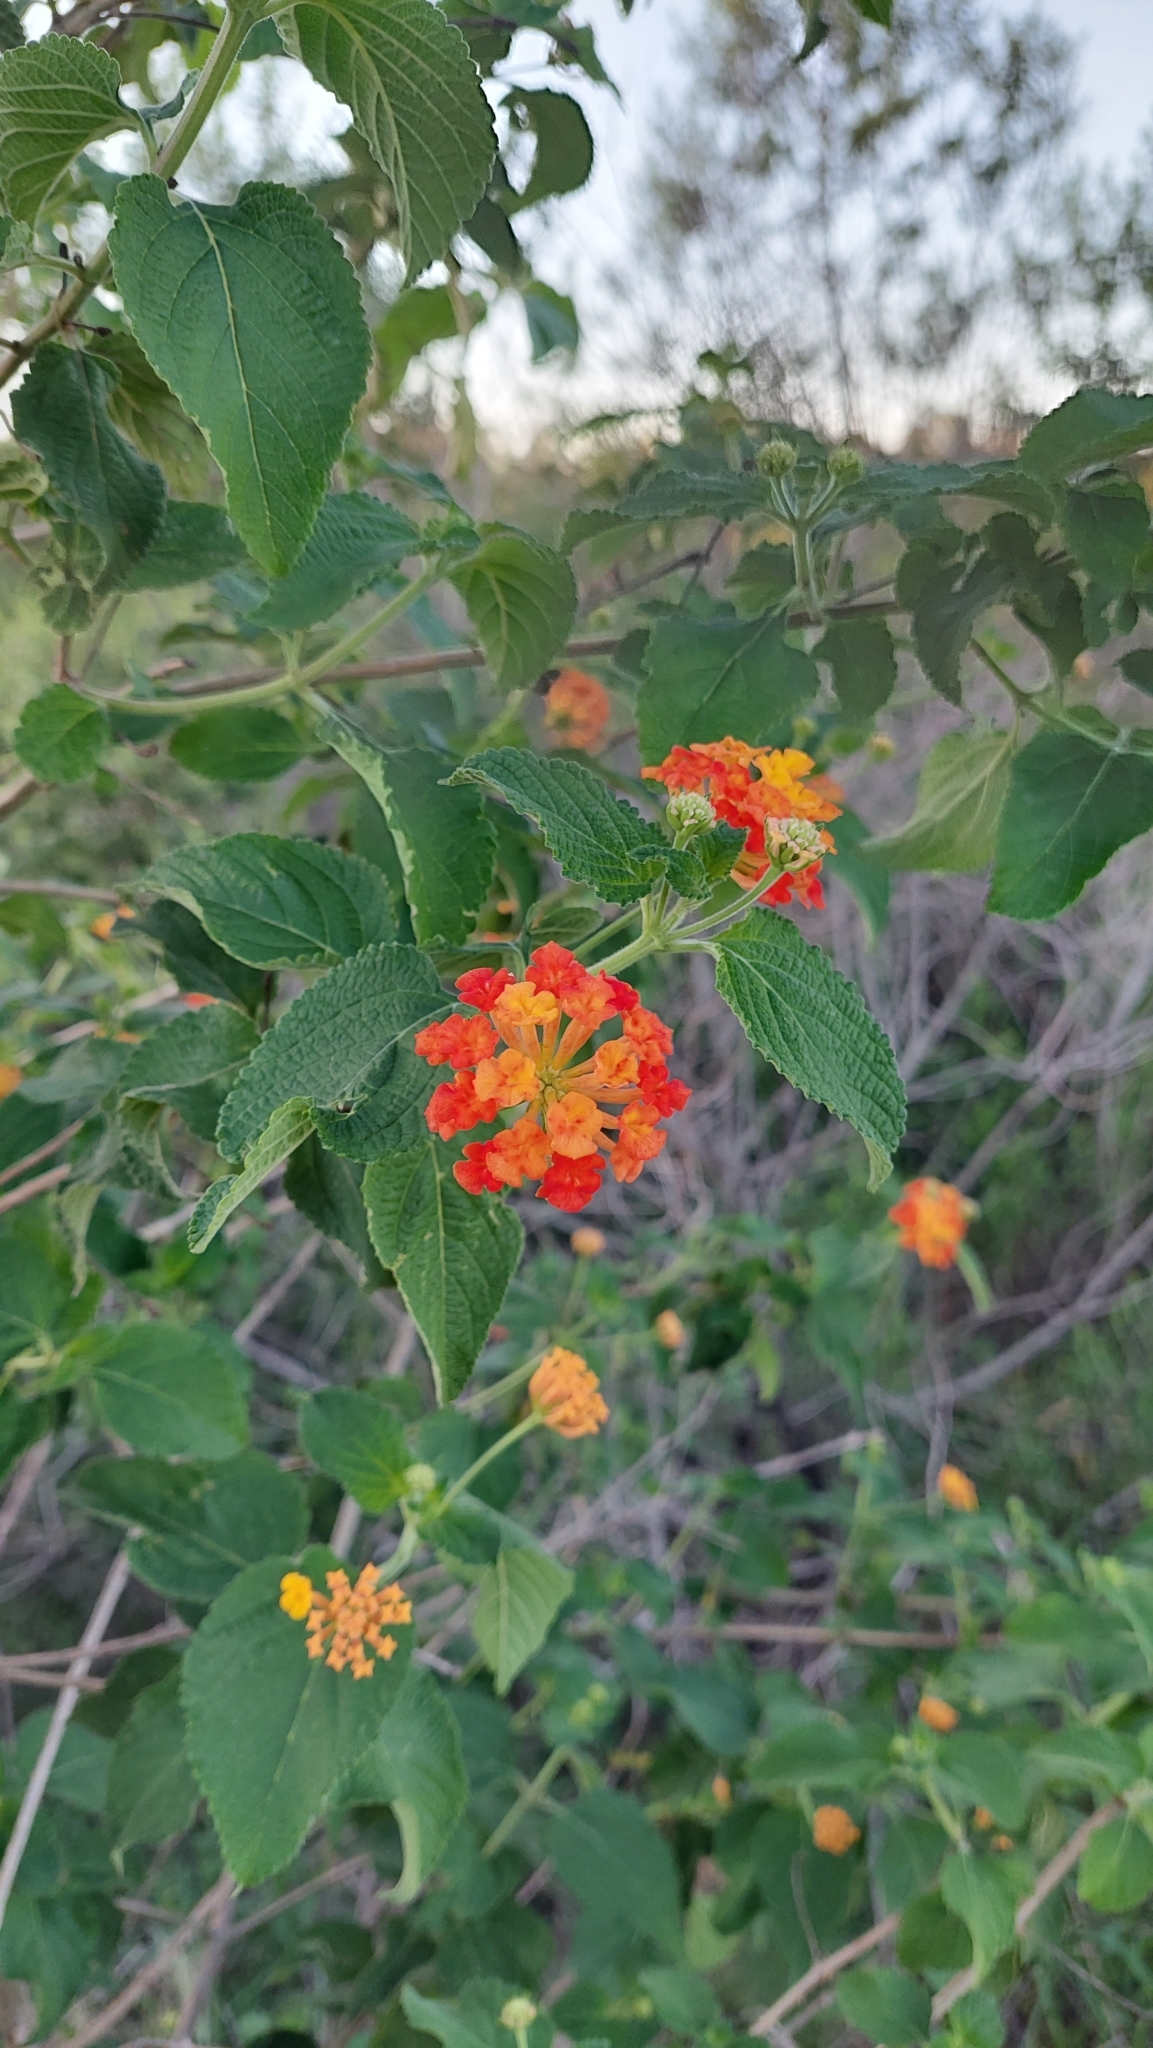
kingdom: Plantae
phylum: Tracheophyta
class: Magnoliopsida
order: Lamiales
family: Verbenaceae
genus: Lantana
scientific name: Lantana camara
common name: Lantana
